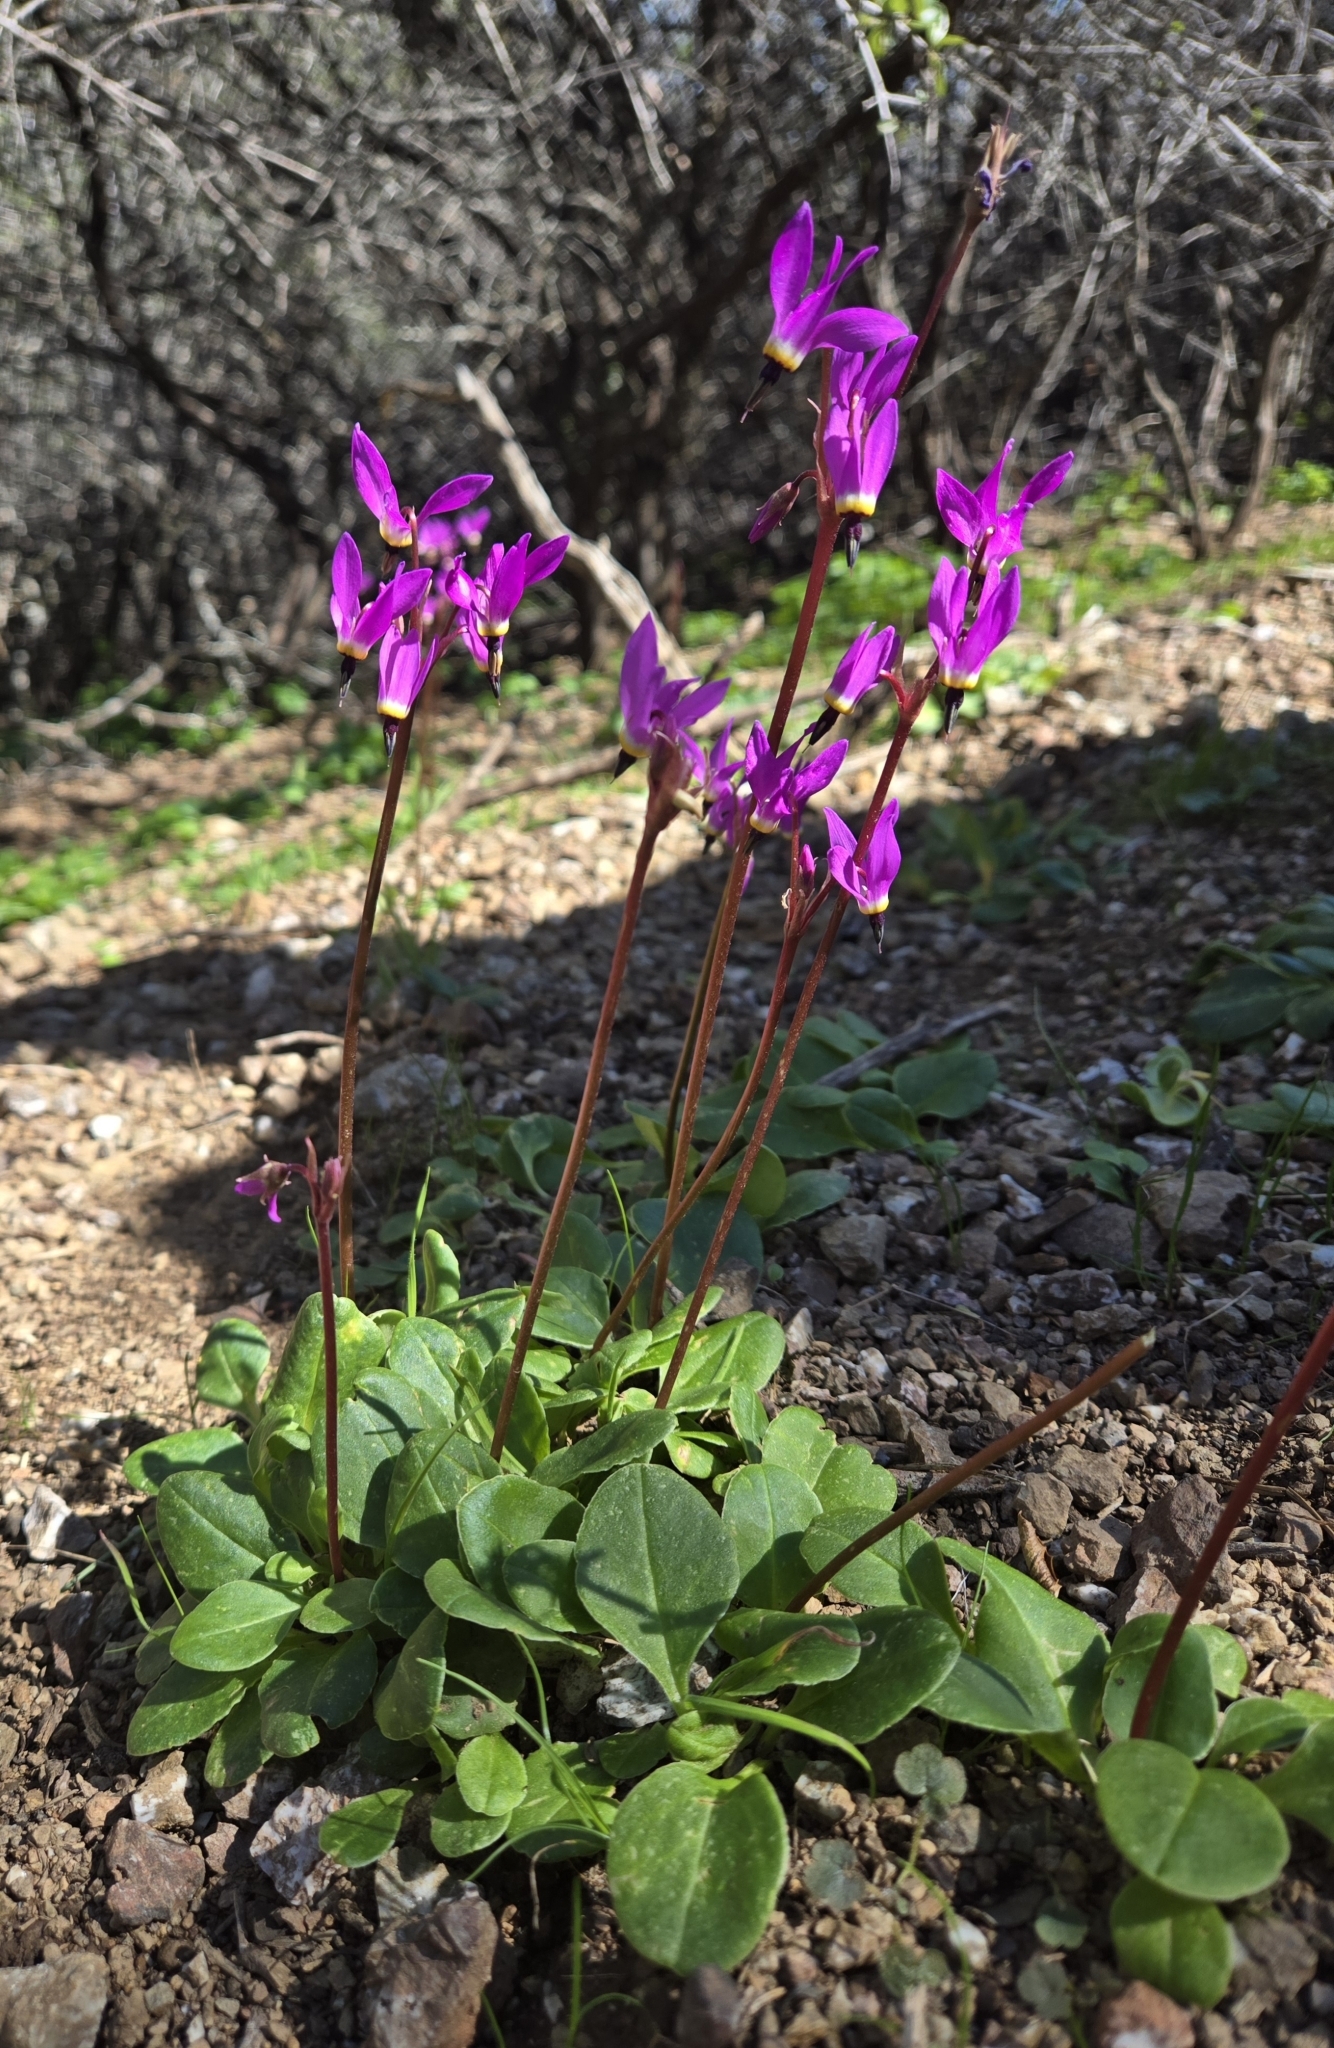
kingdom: Plantae
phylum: Tracheophyta
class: Magnoliopsida
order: Ericales
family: Primulaceae
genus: Dodecatheon
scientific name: Dodecatheon hendersonii
